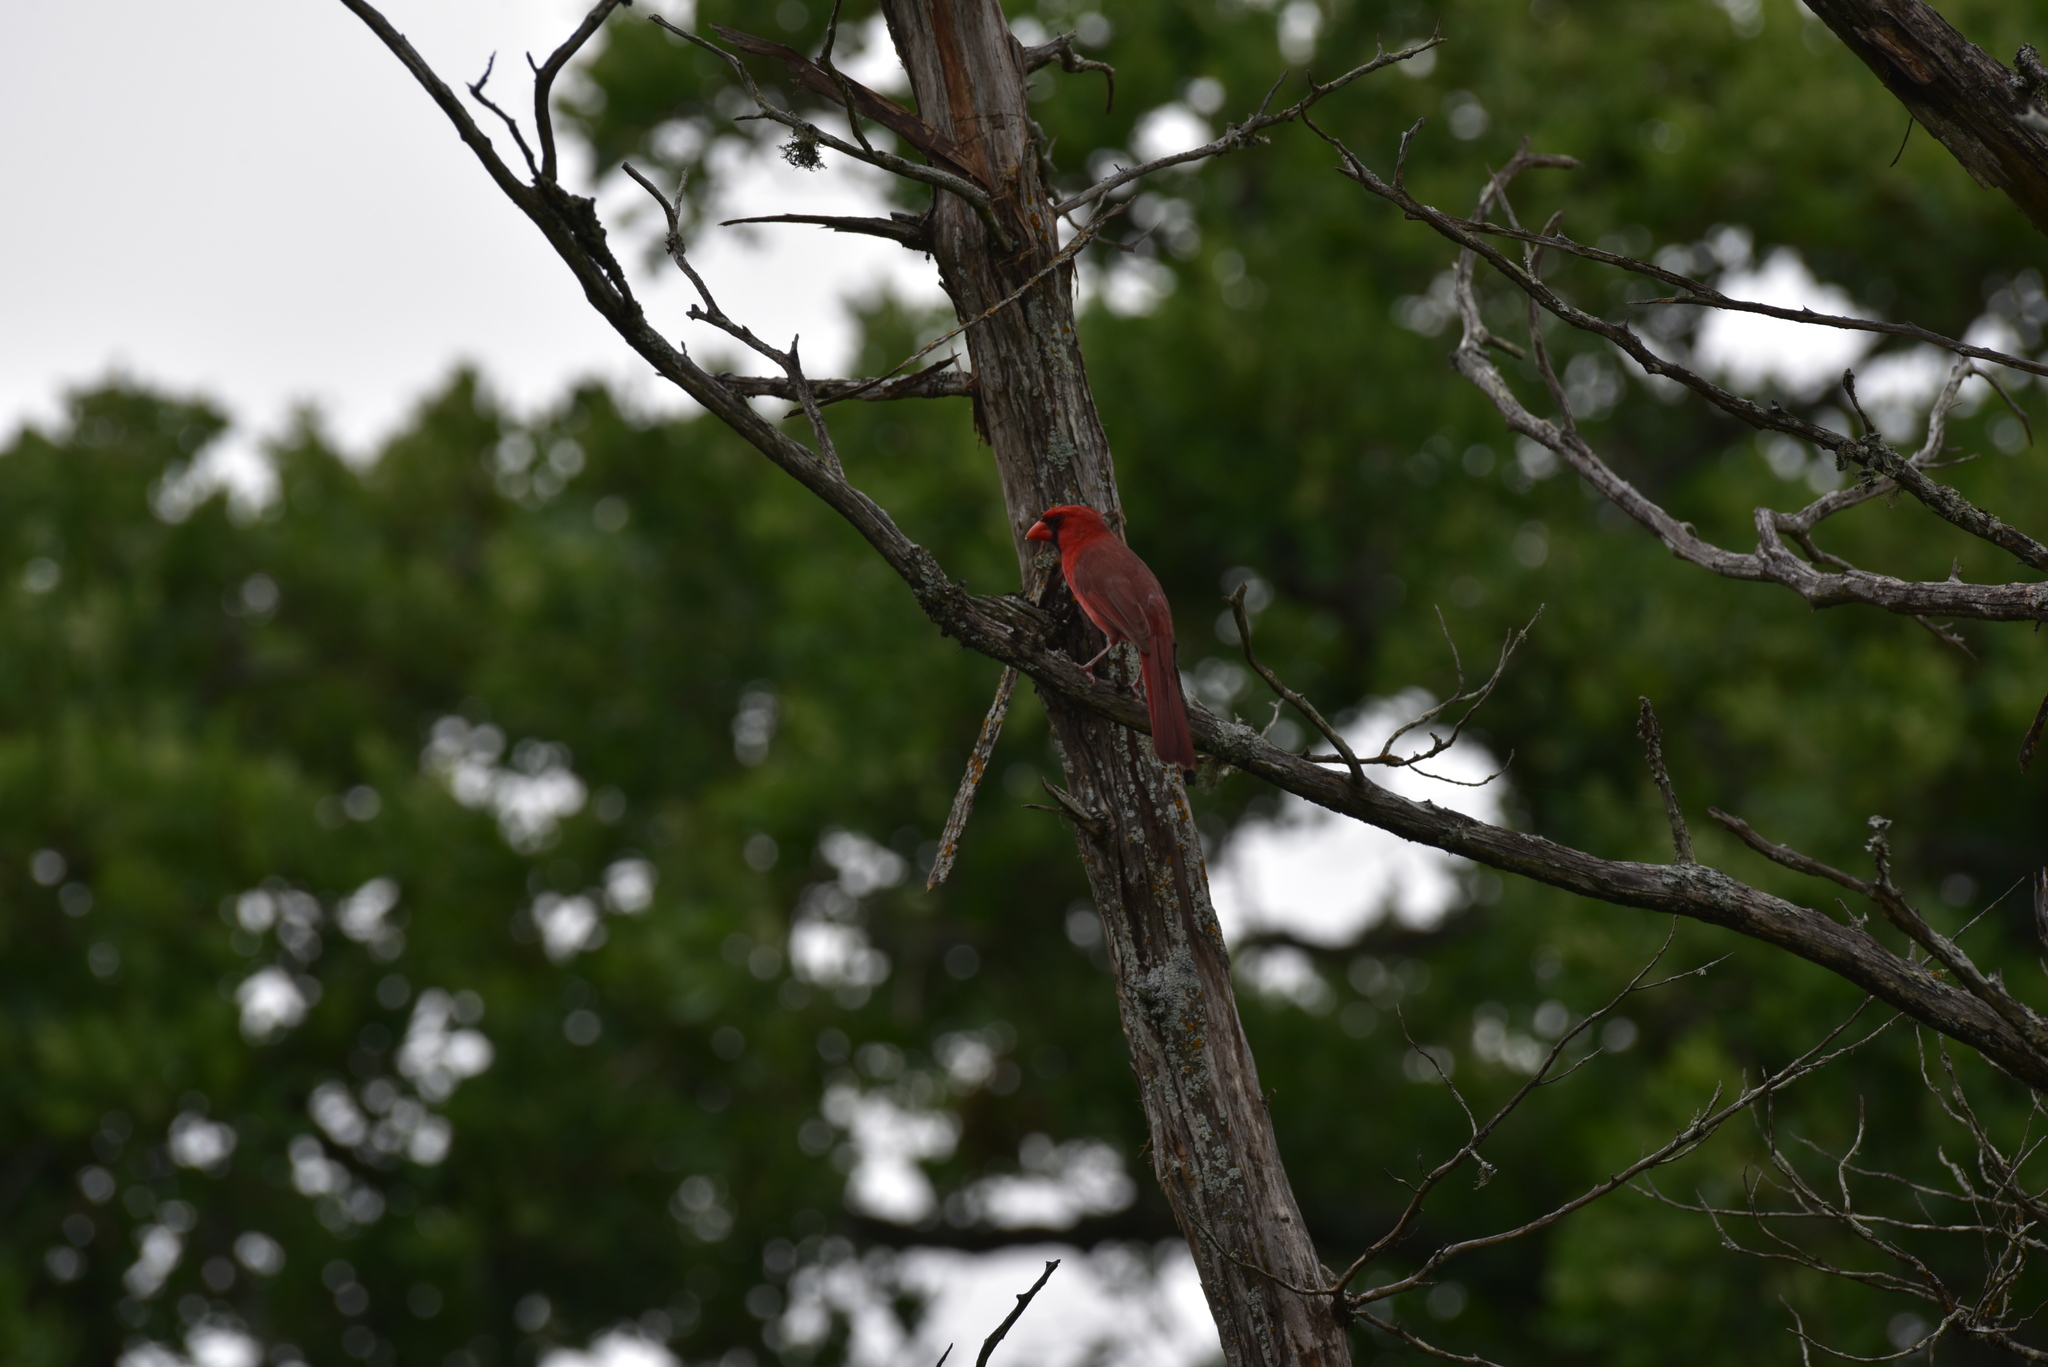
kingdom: Animalia
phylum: Chordata
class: Aves
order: Passeriformes
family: Cardinalidae
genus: Cardinalis
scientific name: Cardinalis cardinalis
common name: Northern cardinal
